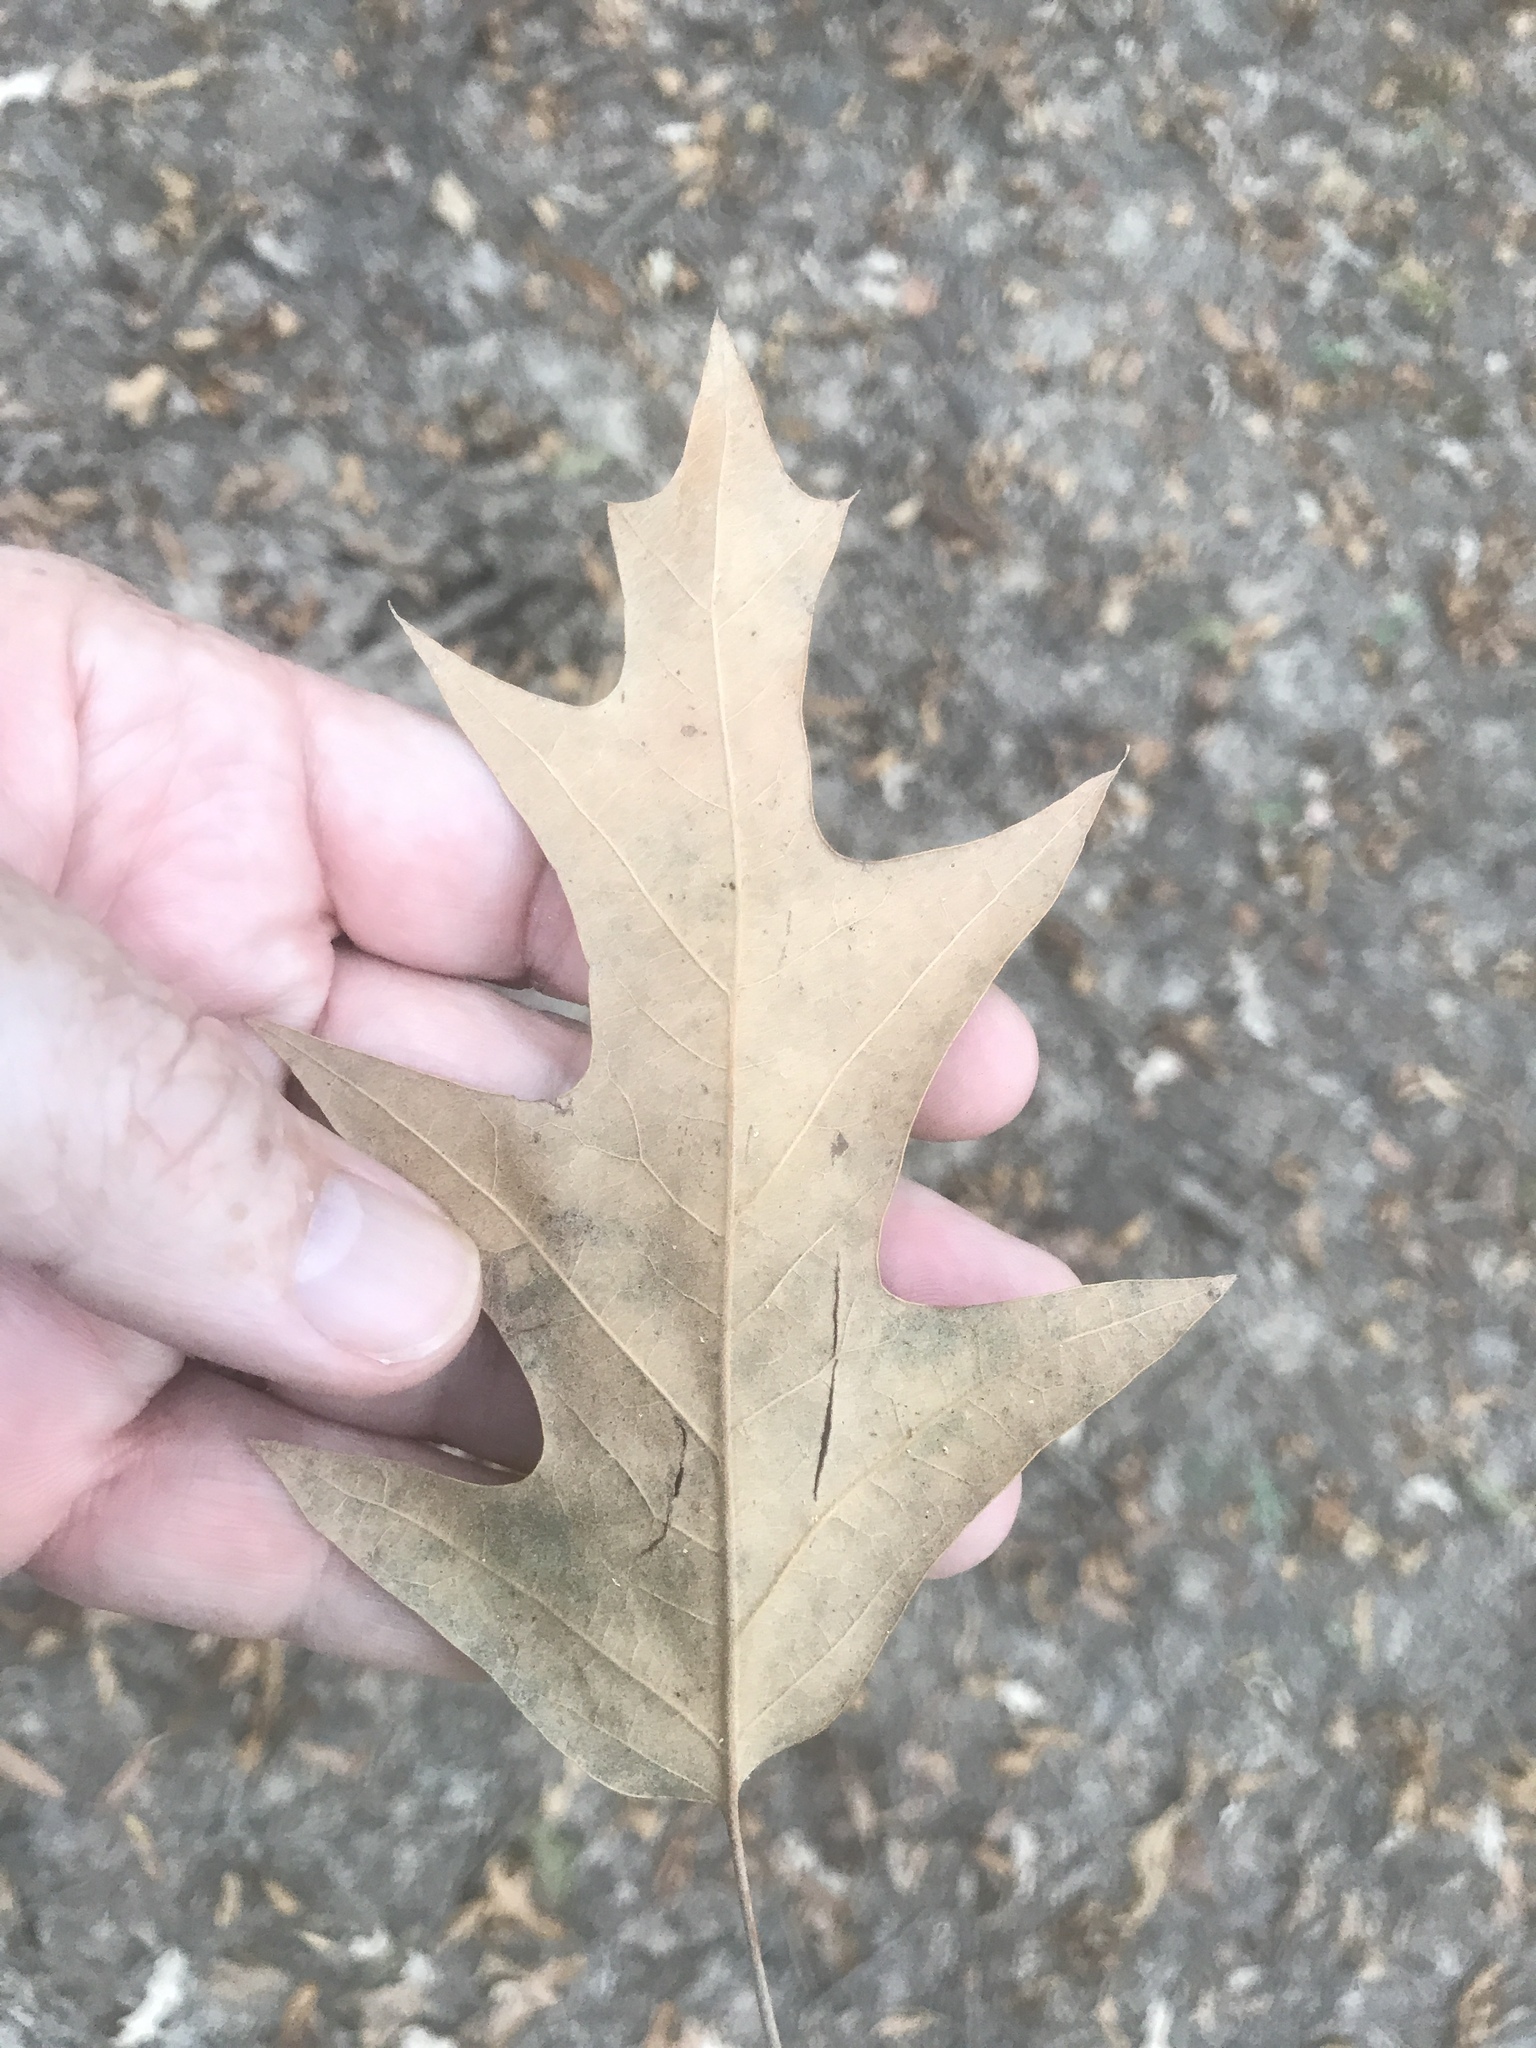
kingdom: Plantae
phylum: Tracheophyta
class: Magnoliopsida
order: Fagales
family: Fagaceae
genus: Quercus
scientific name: Quercus pagoda
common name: Cherrybark oak
